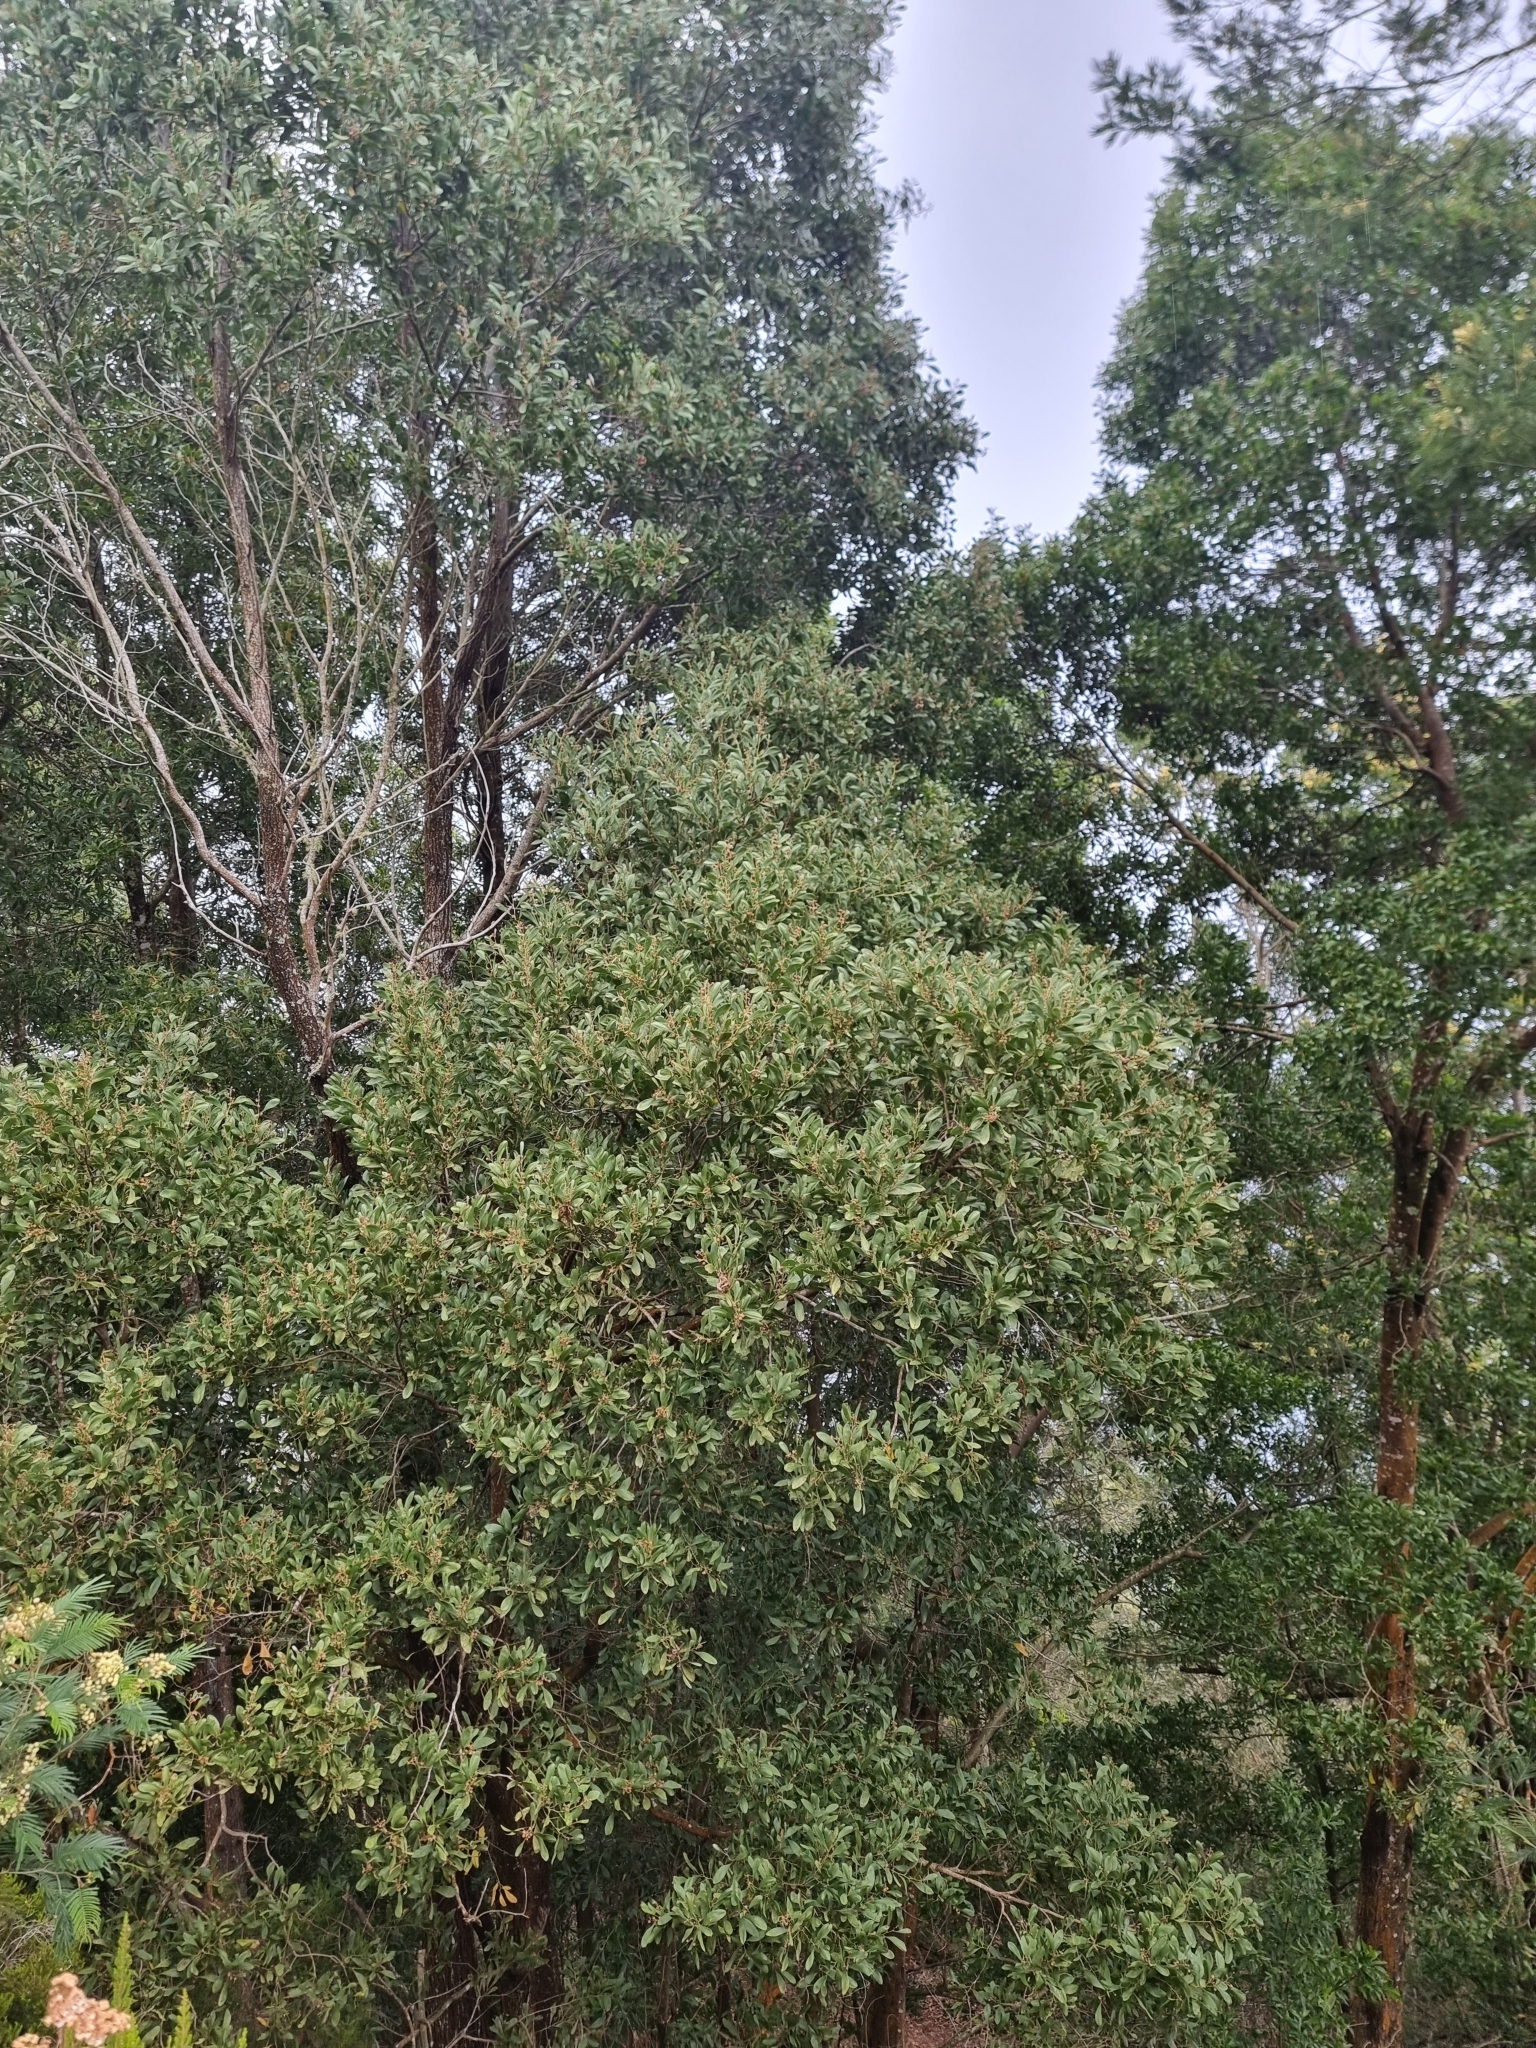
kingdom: Plantae
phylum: Tracheophyta
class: Magnoliopsida
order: Fabales
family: Fabaceae
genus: Acacia
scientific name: Acacia melanoxylon
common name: Blackwood
